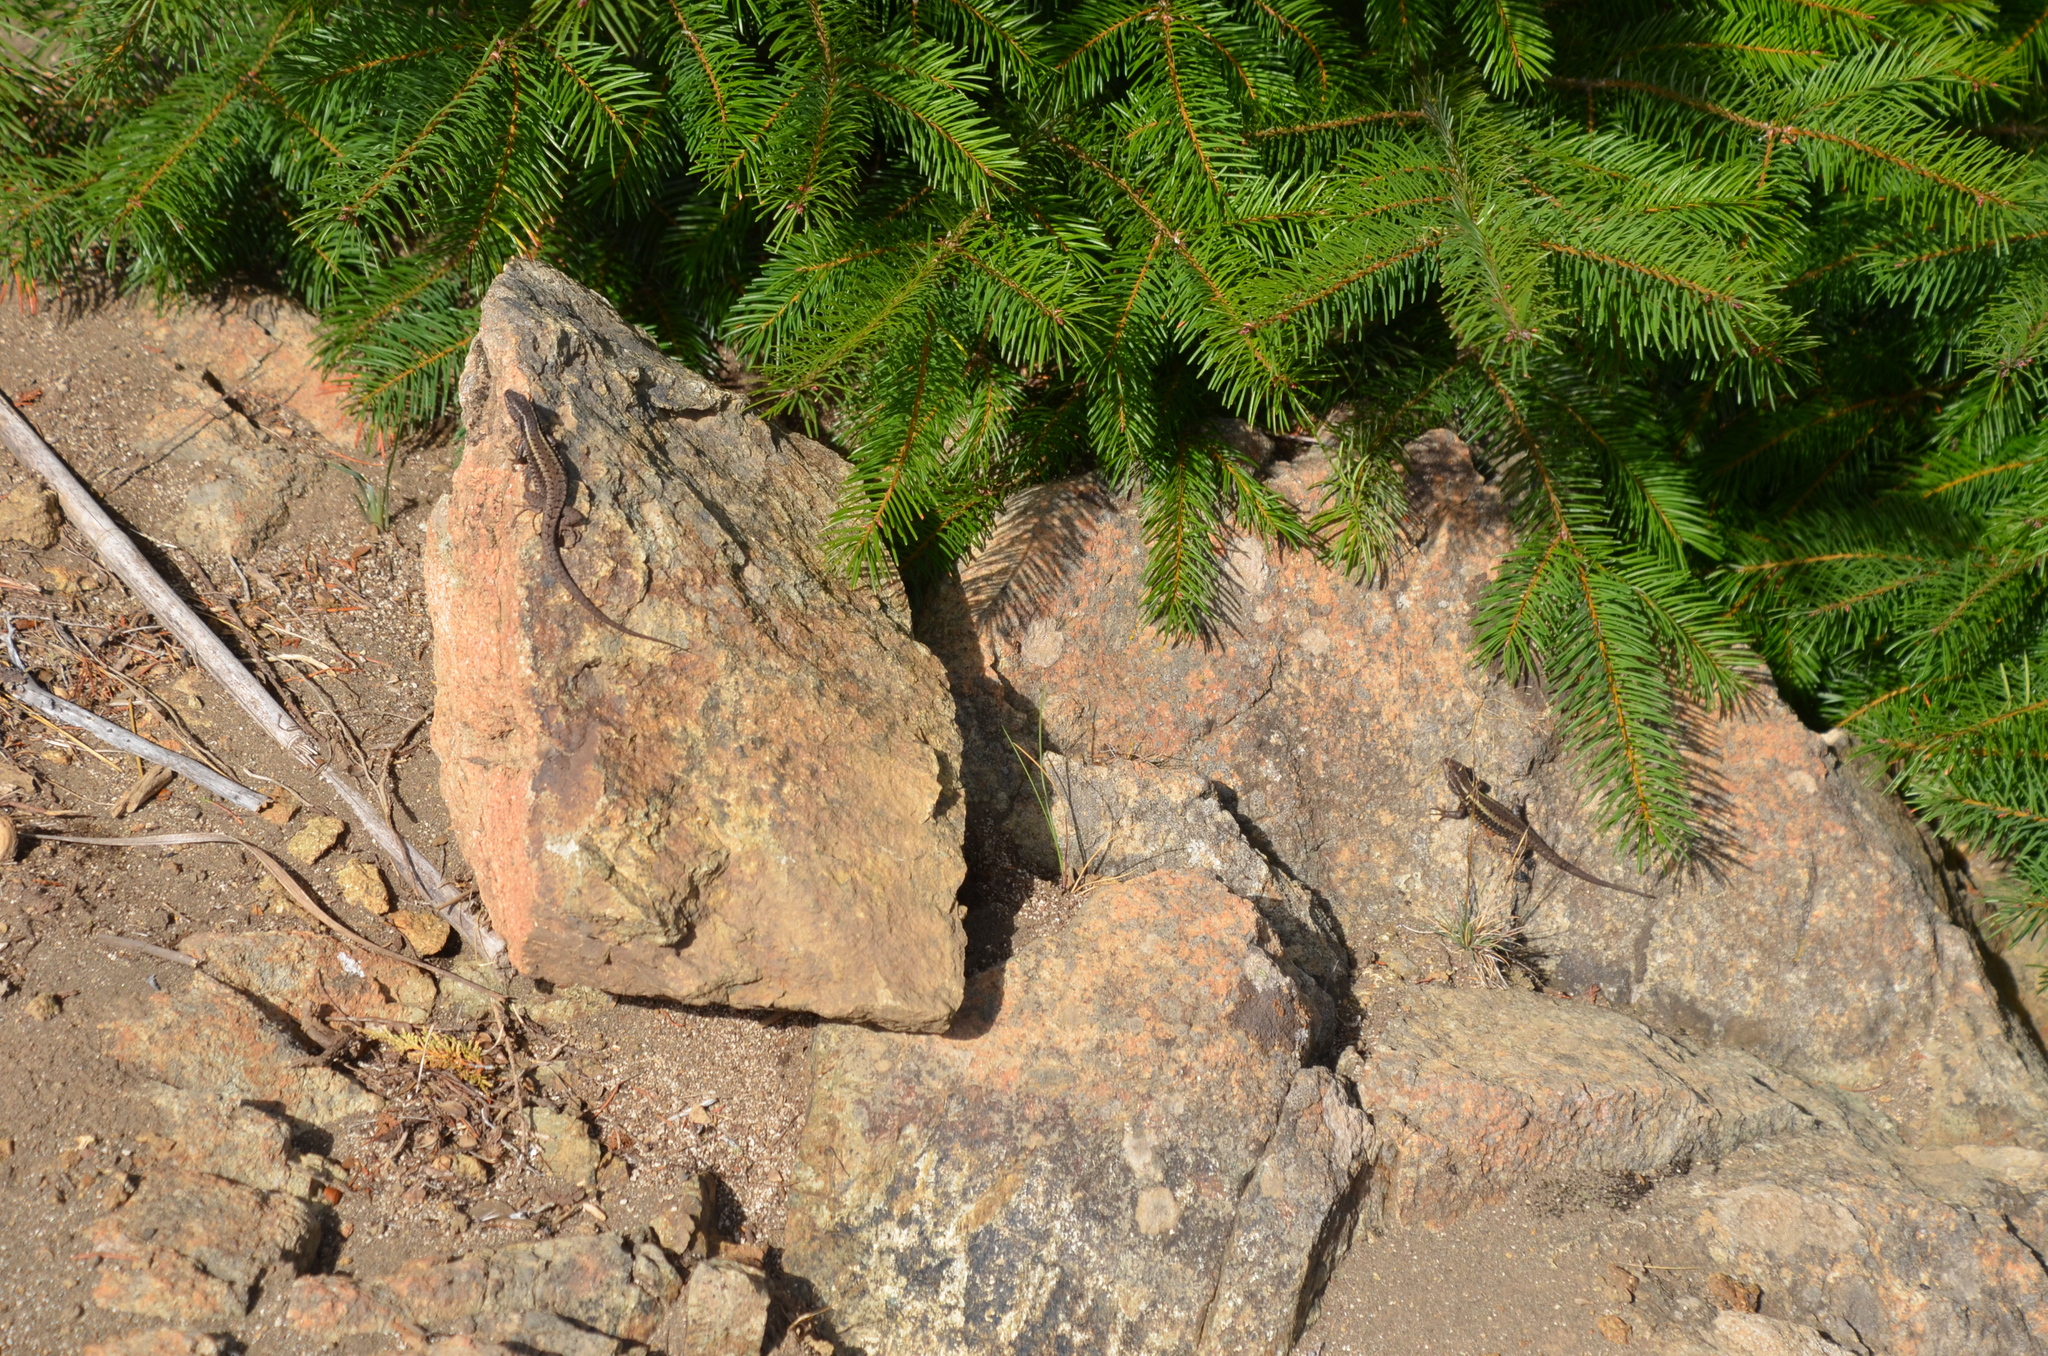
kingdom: Animalia
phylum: Chordata
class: Squamata
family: Liolaemidae
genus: Liolaemus
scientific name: Liolaemus pictus
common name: Painted tree iguana
